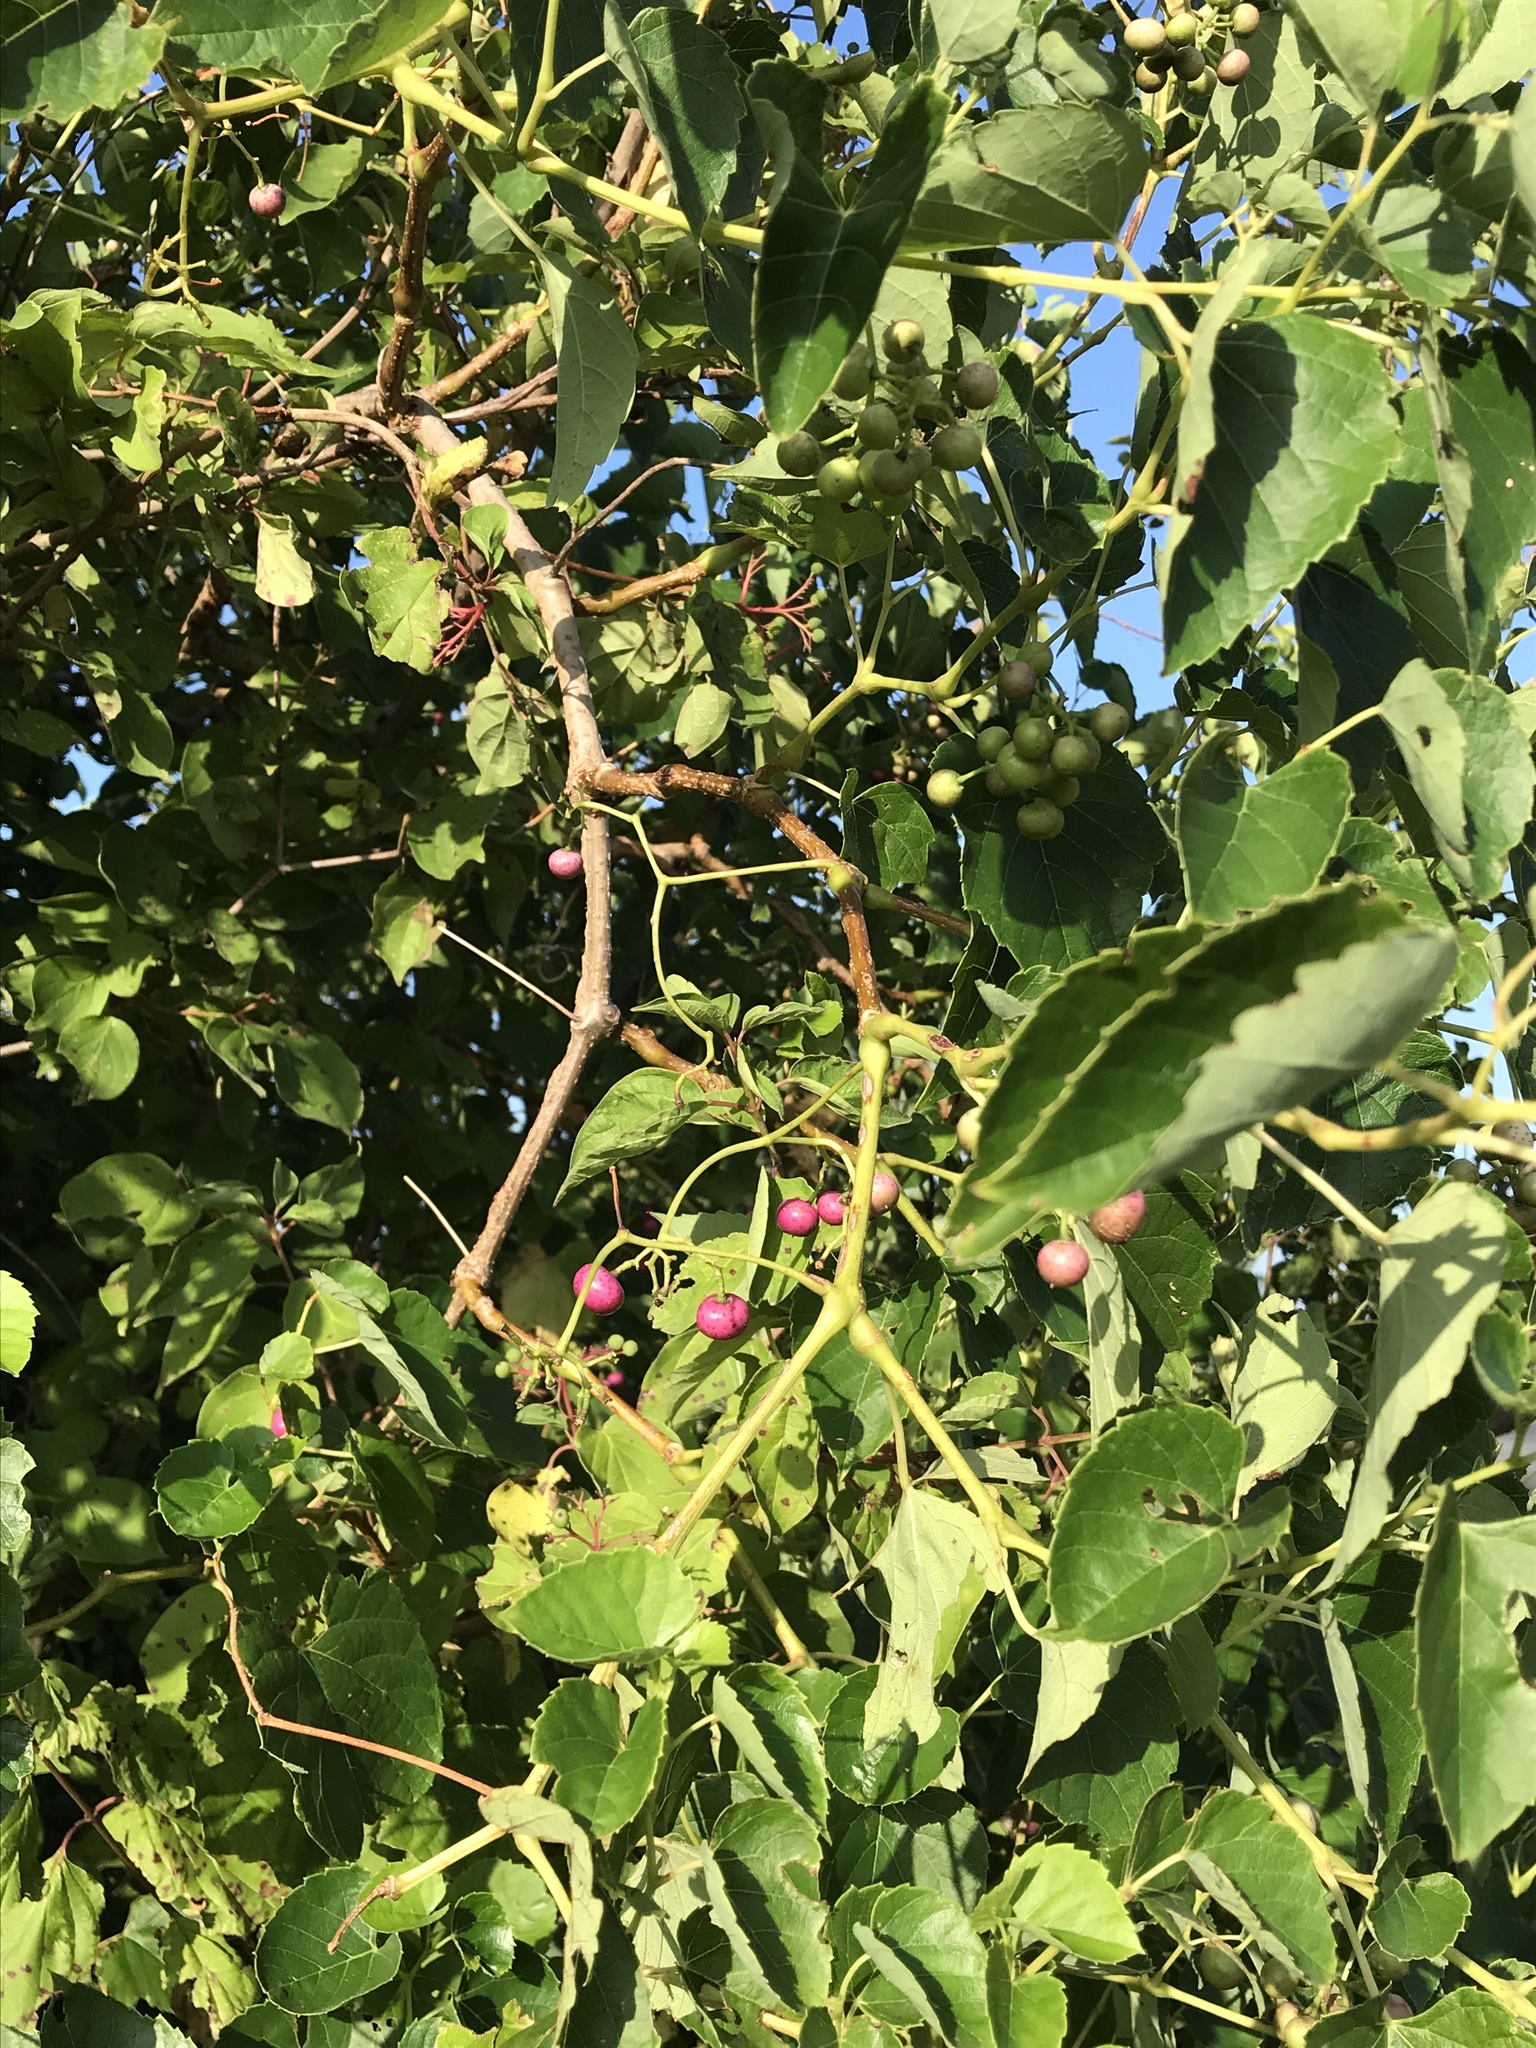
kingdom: Plantae
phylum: Tracheophyta
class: Magnoliopsida
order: Vitales
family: Vitaceae
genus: Ampelopsis
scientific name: Ampelopsis cordata
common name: Heart-leaf ampelopsis
